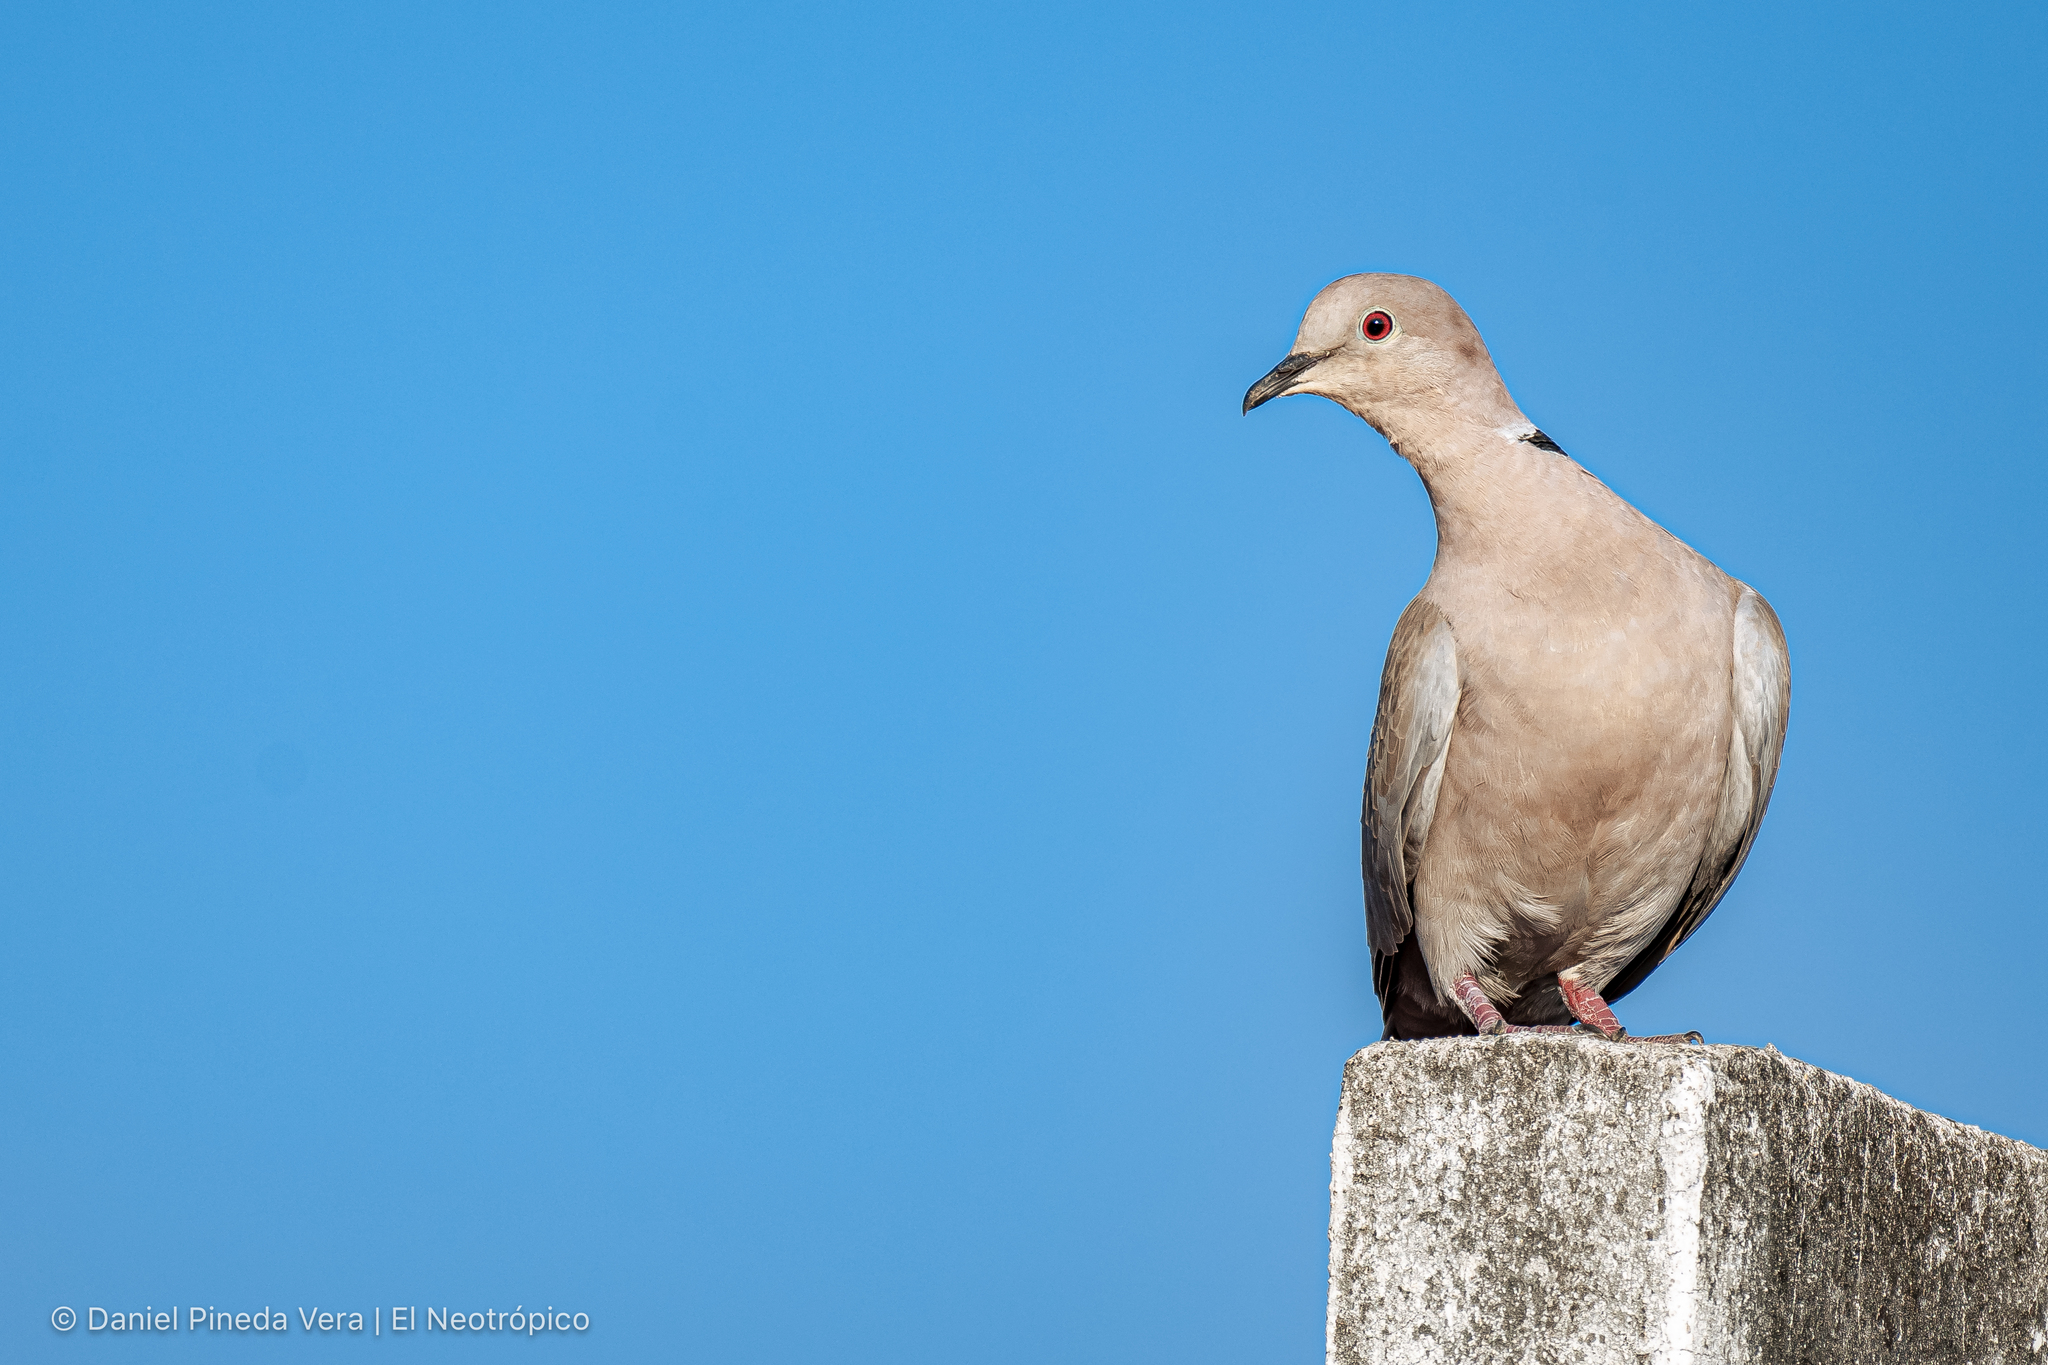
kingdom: Animalia
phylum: Chordata
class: Aves
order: Columbiformes
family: Columbidae
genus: Streptopelia
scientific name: Streptopelia decaocto
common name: Eurasian collared dove
